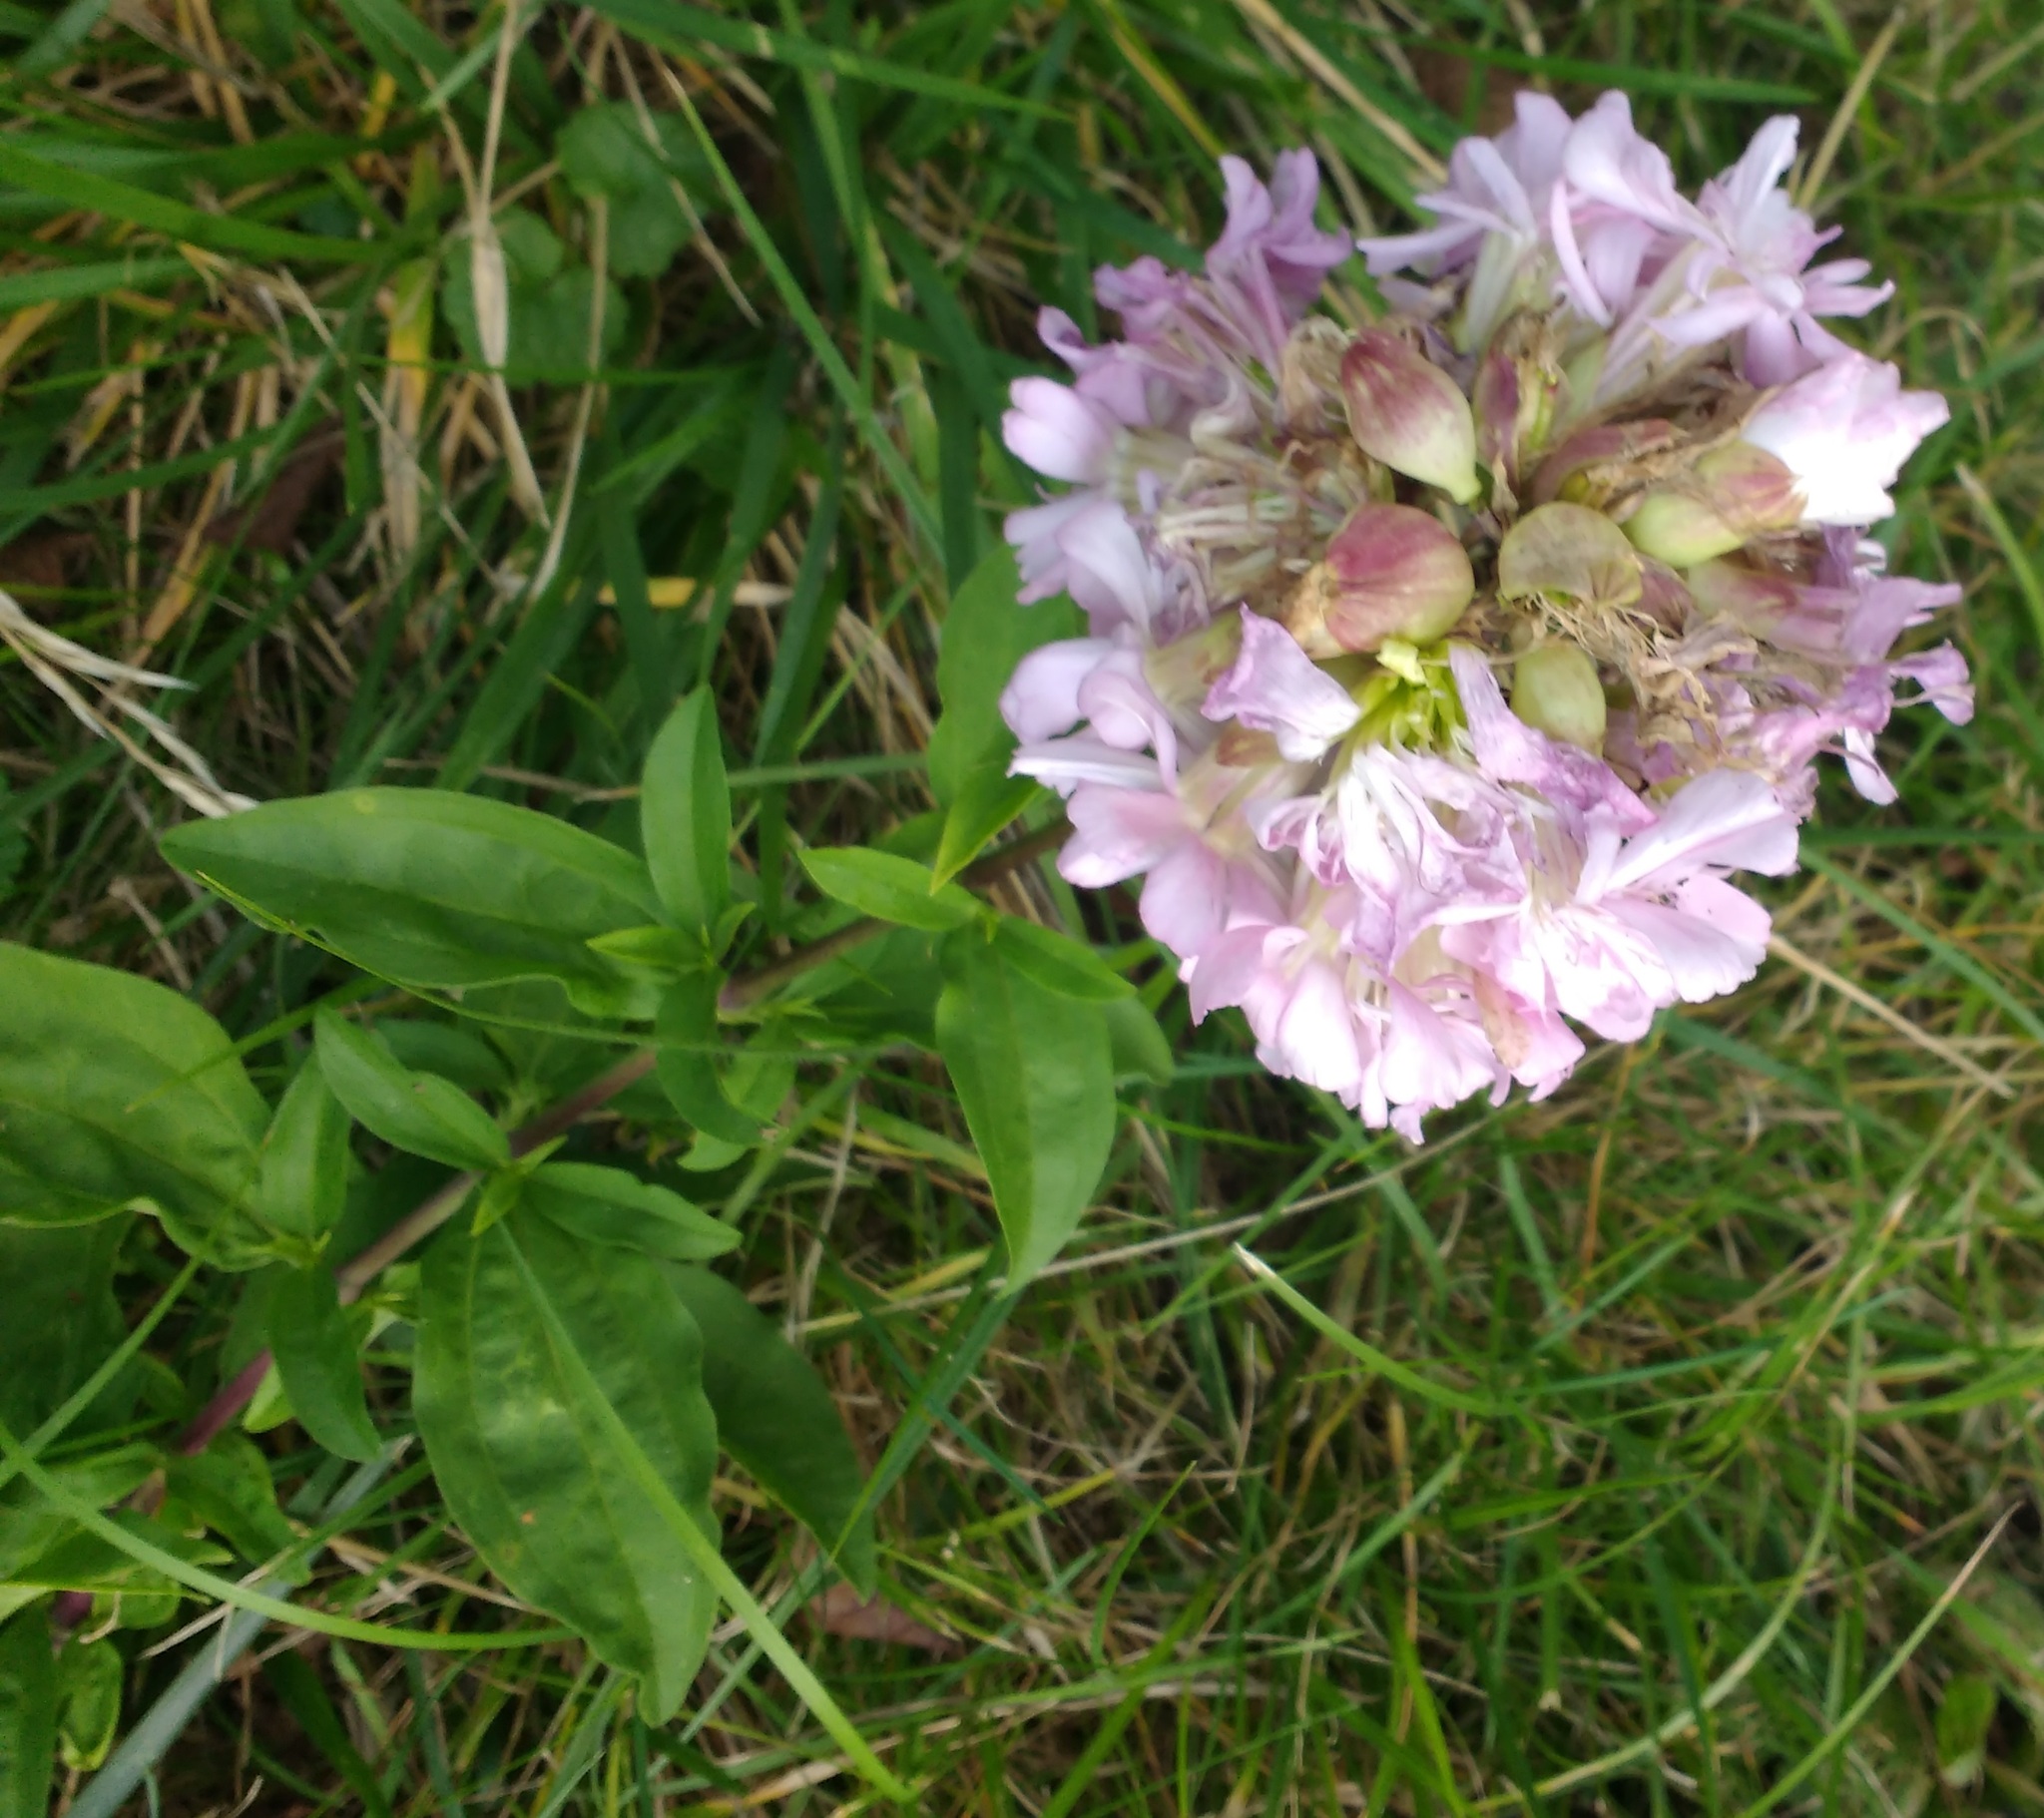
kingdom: Plantae
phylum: Tracheophyta
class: Magnoliopsida
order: Caryophyllales
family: Caryophyllaceae
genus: Saponaria
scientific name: Saponaria officinalis
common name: Soapwort
